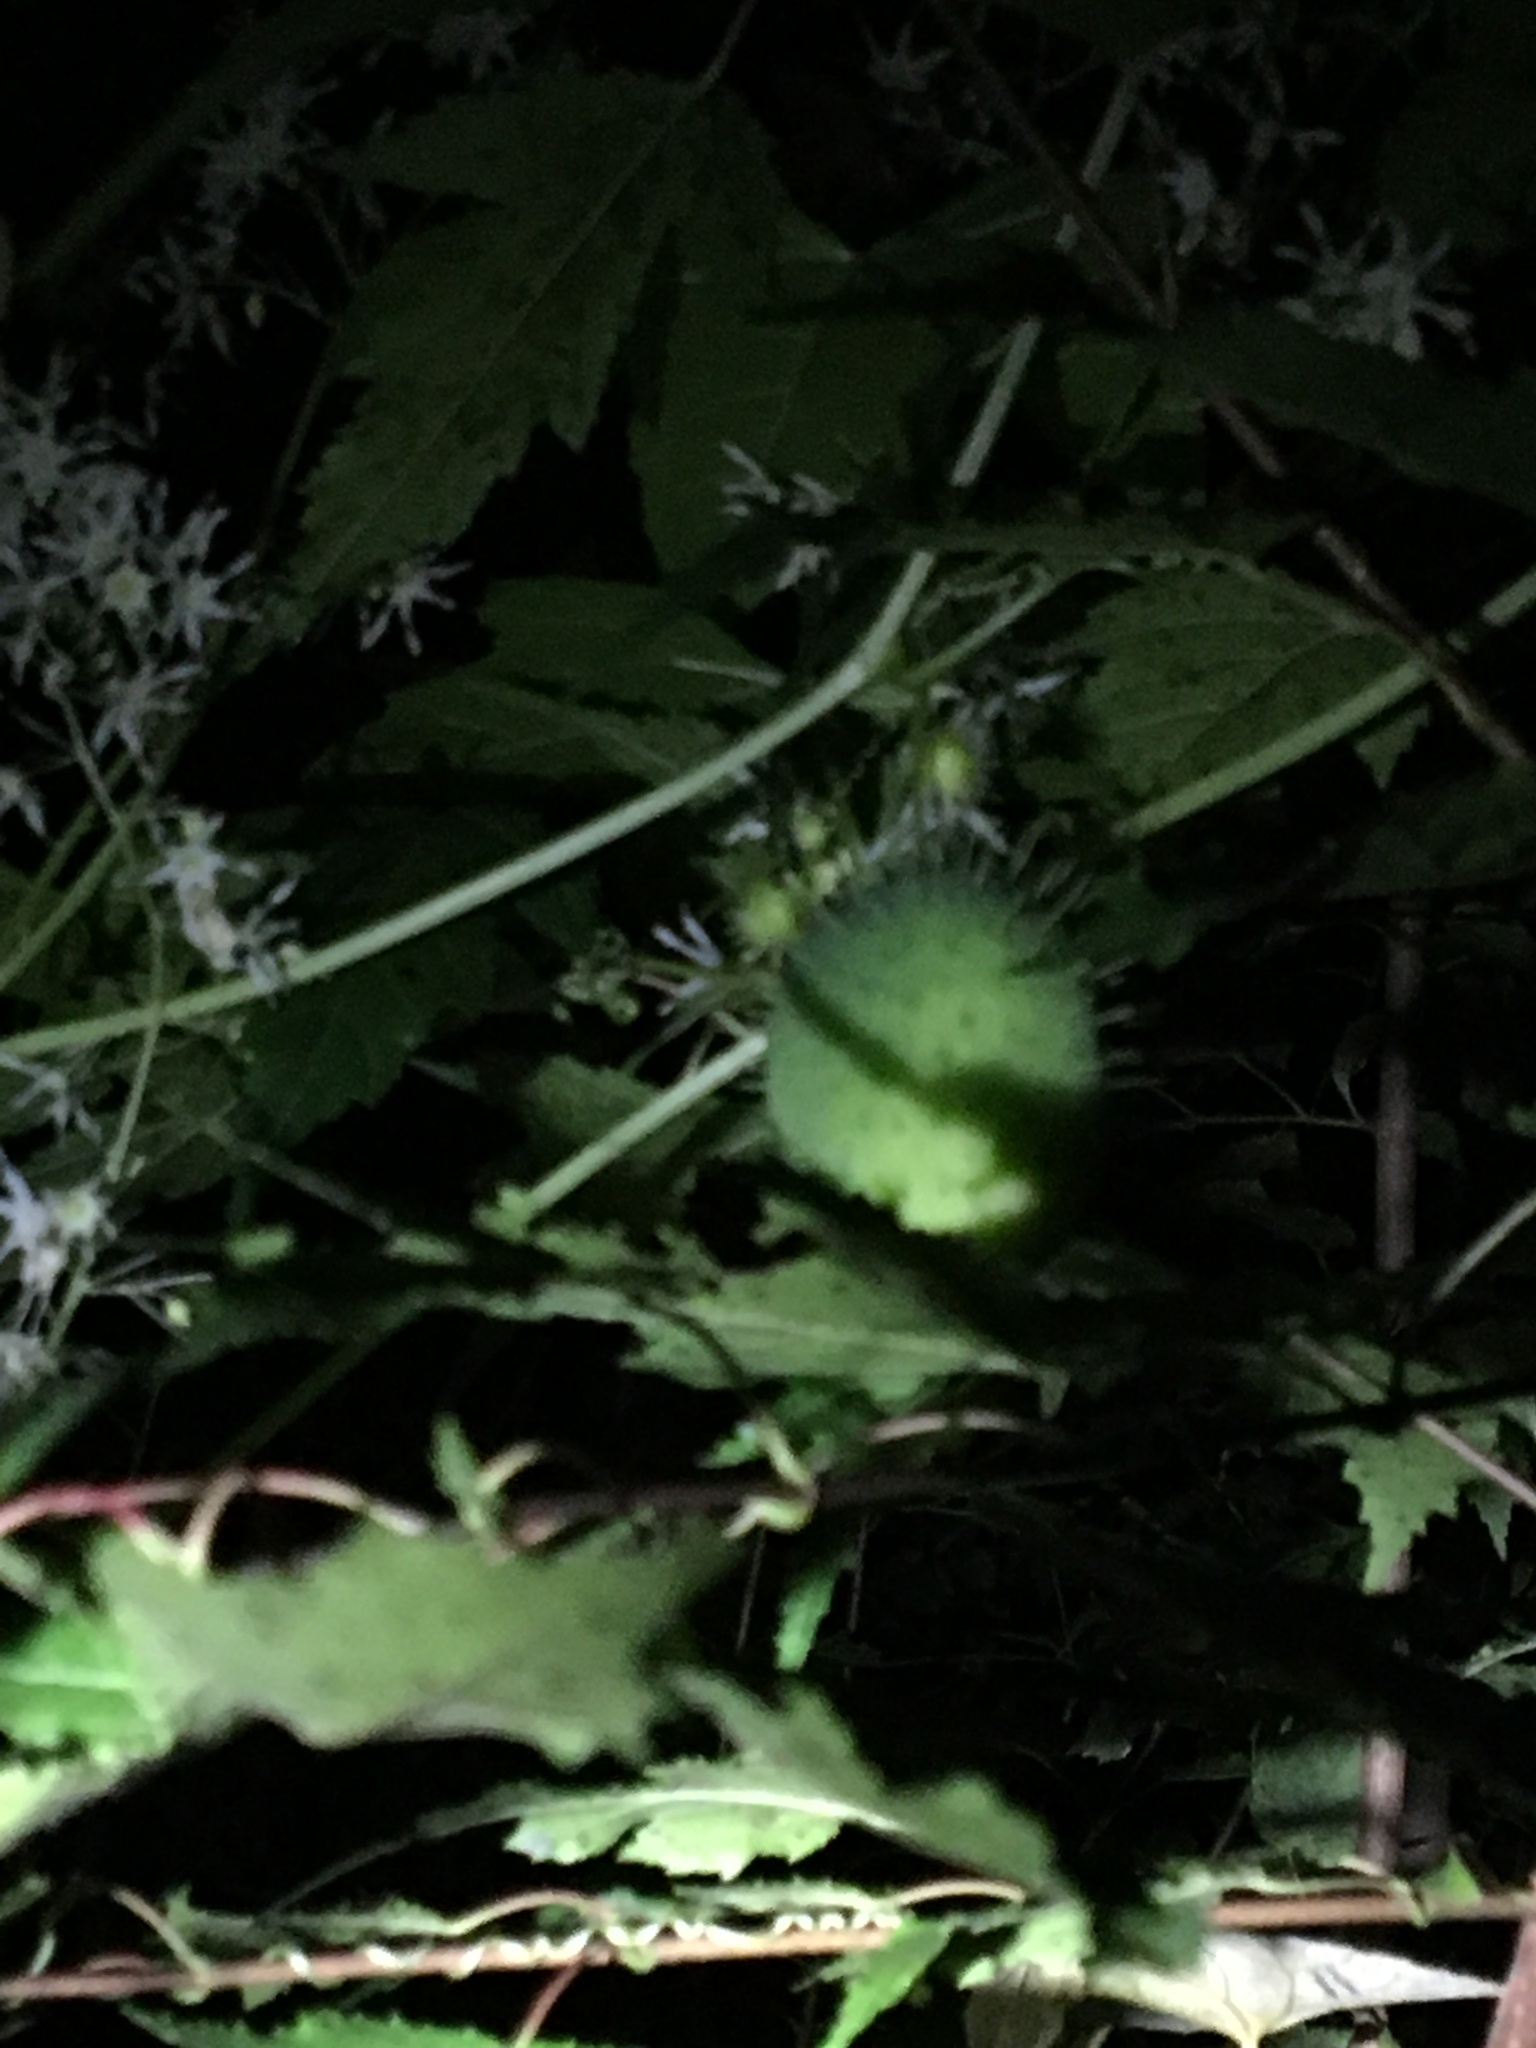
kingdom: Plantae
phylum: Tracheophyta
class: Magnoliopsida
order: Cucurbitales
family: Cucurbitaceae
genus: Echinocystis
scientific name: Echinocystis lobata
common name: Wild cucumber
